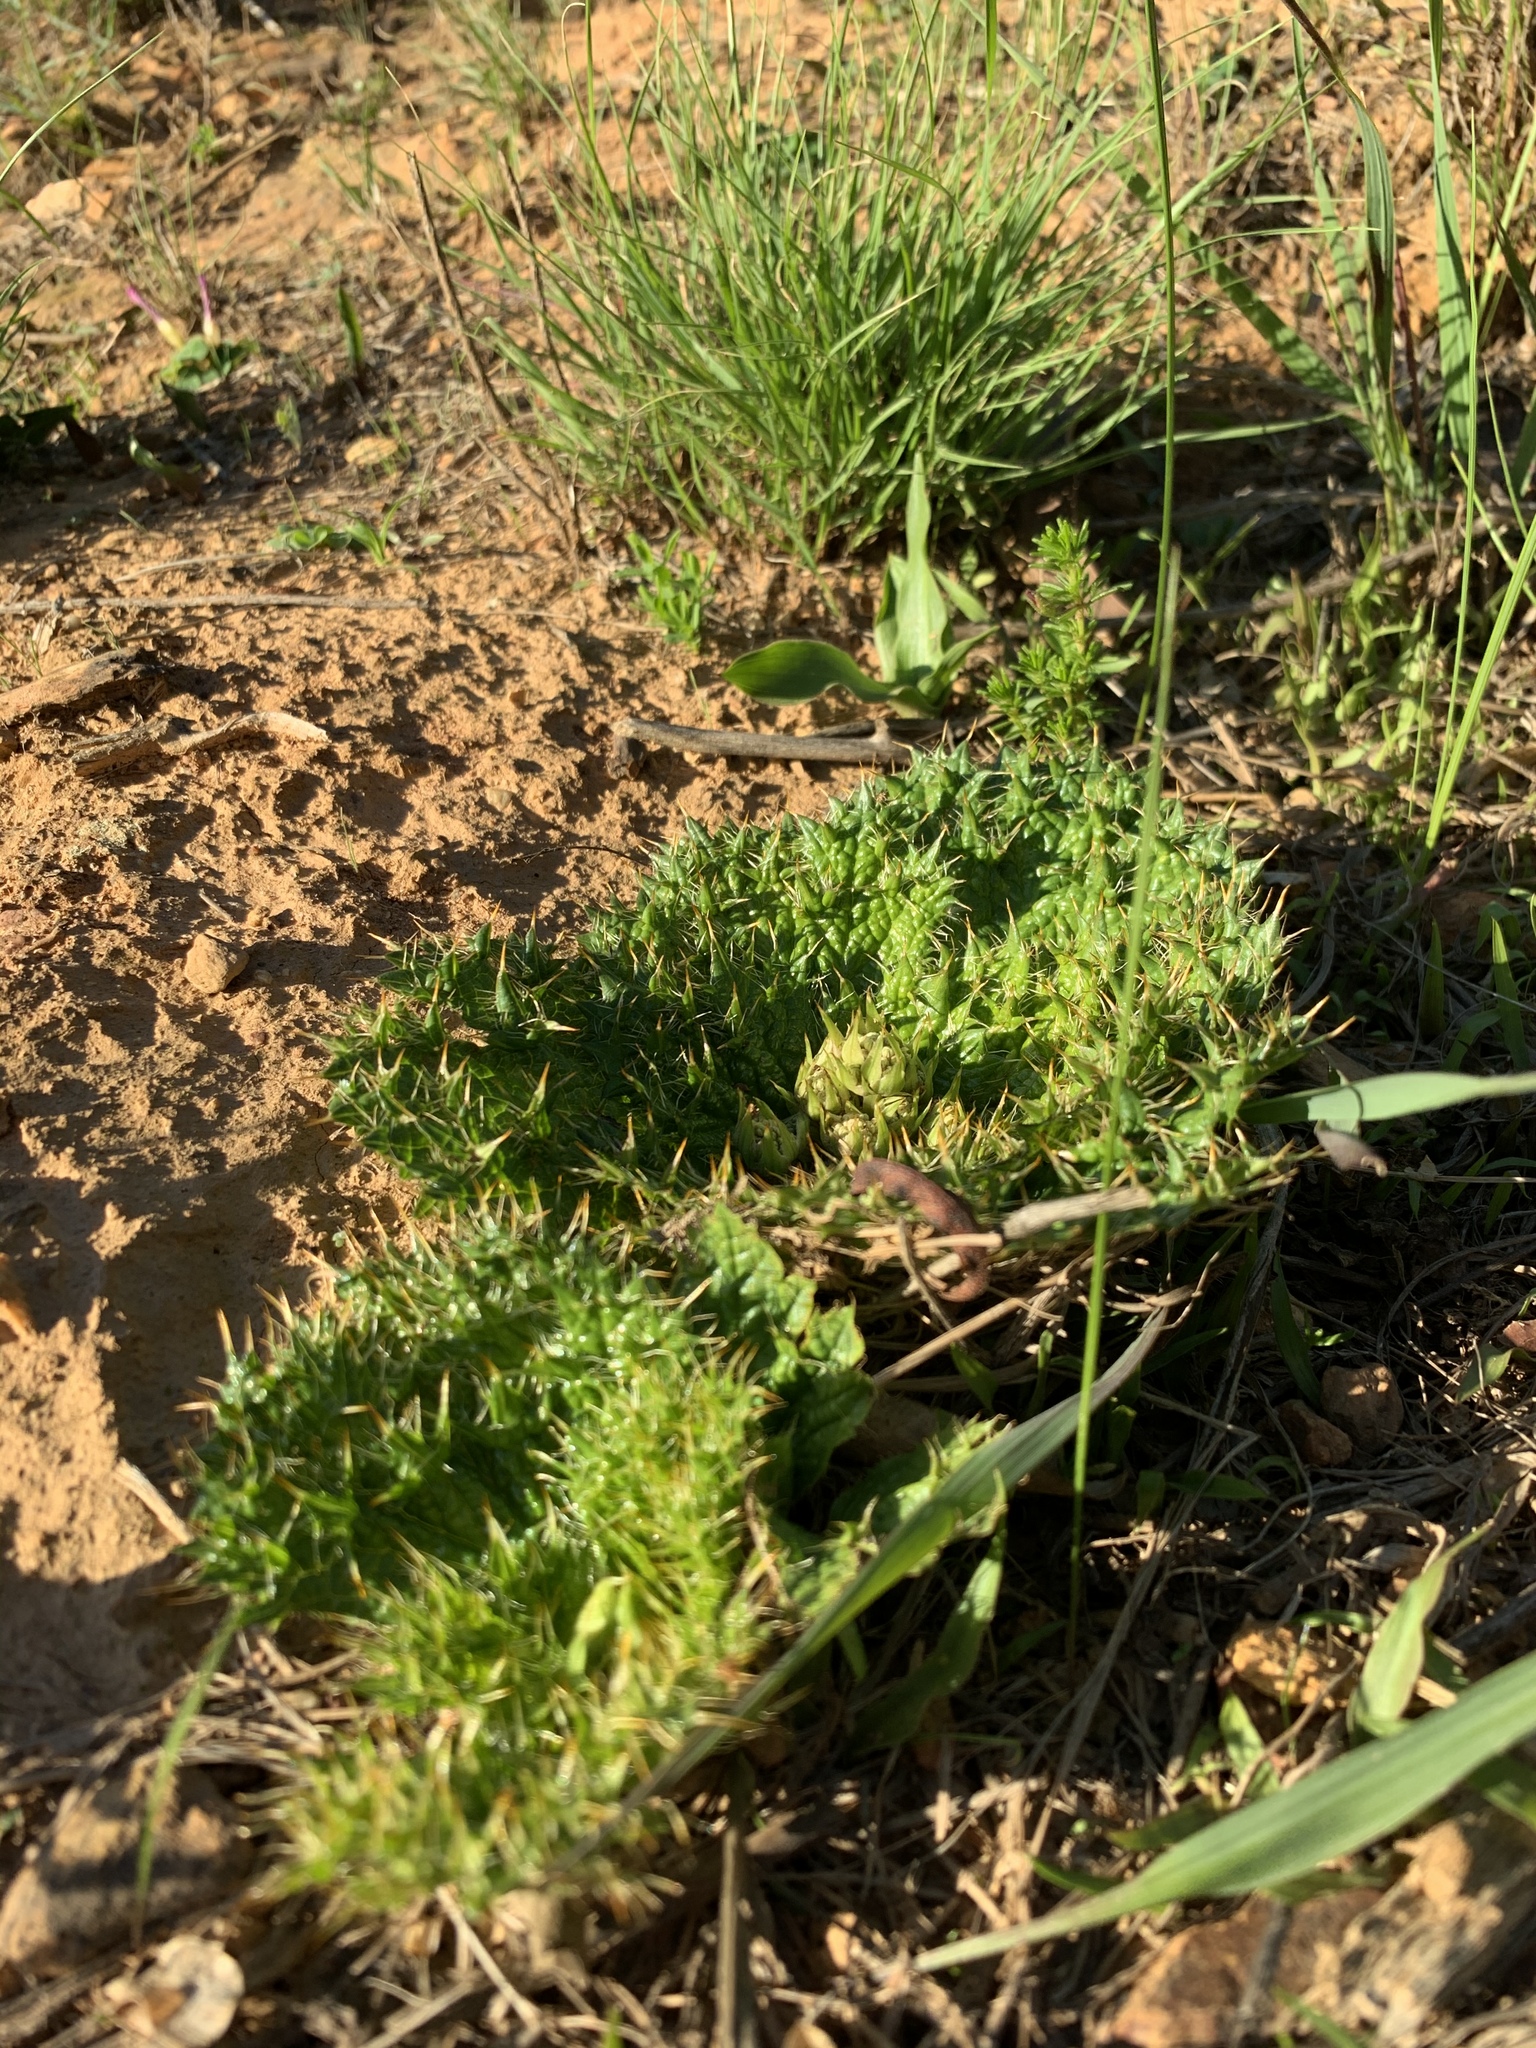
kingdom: Plantae
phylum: Tracheophyta
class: Magnoliopsida
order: Apiales
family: Apiaceae
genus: Arctopus
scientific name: Arctopus monacanthus
